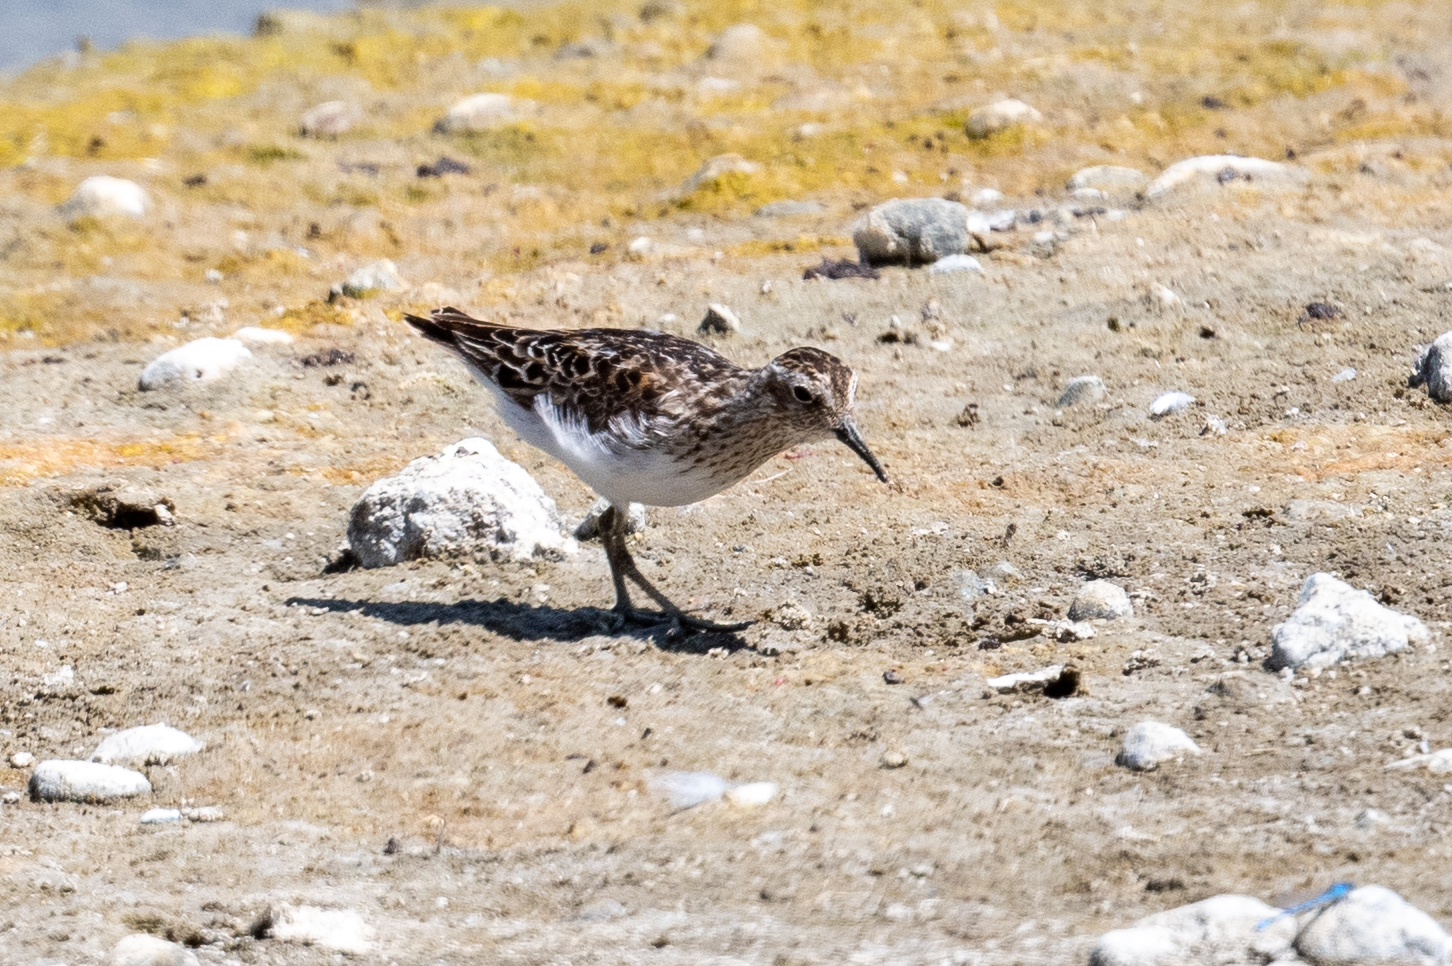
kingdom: Animalia
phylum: Chordata
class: Aves
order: Charadriiformes
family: Scolopacidae
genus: Calidris
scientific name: Calidris minutilla
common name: Least sandpiper
